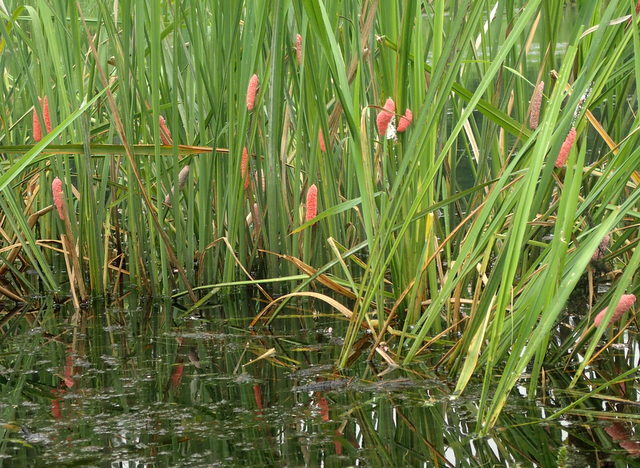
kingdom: Animalia
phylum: Mollusca
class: Gastropoda
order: Architaenioglossa
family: Ampullariidae
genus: Pomacea
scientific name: Pomacea maculata
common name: Giant applesnail
